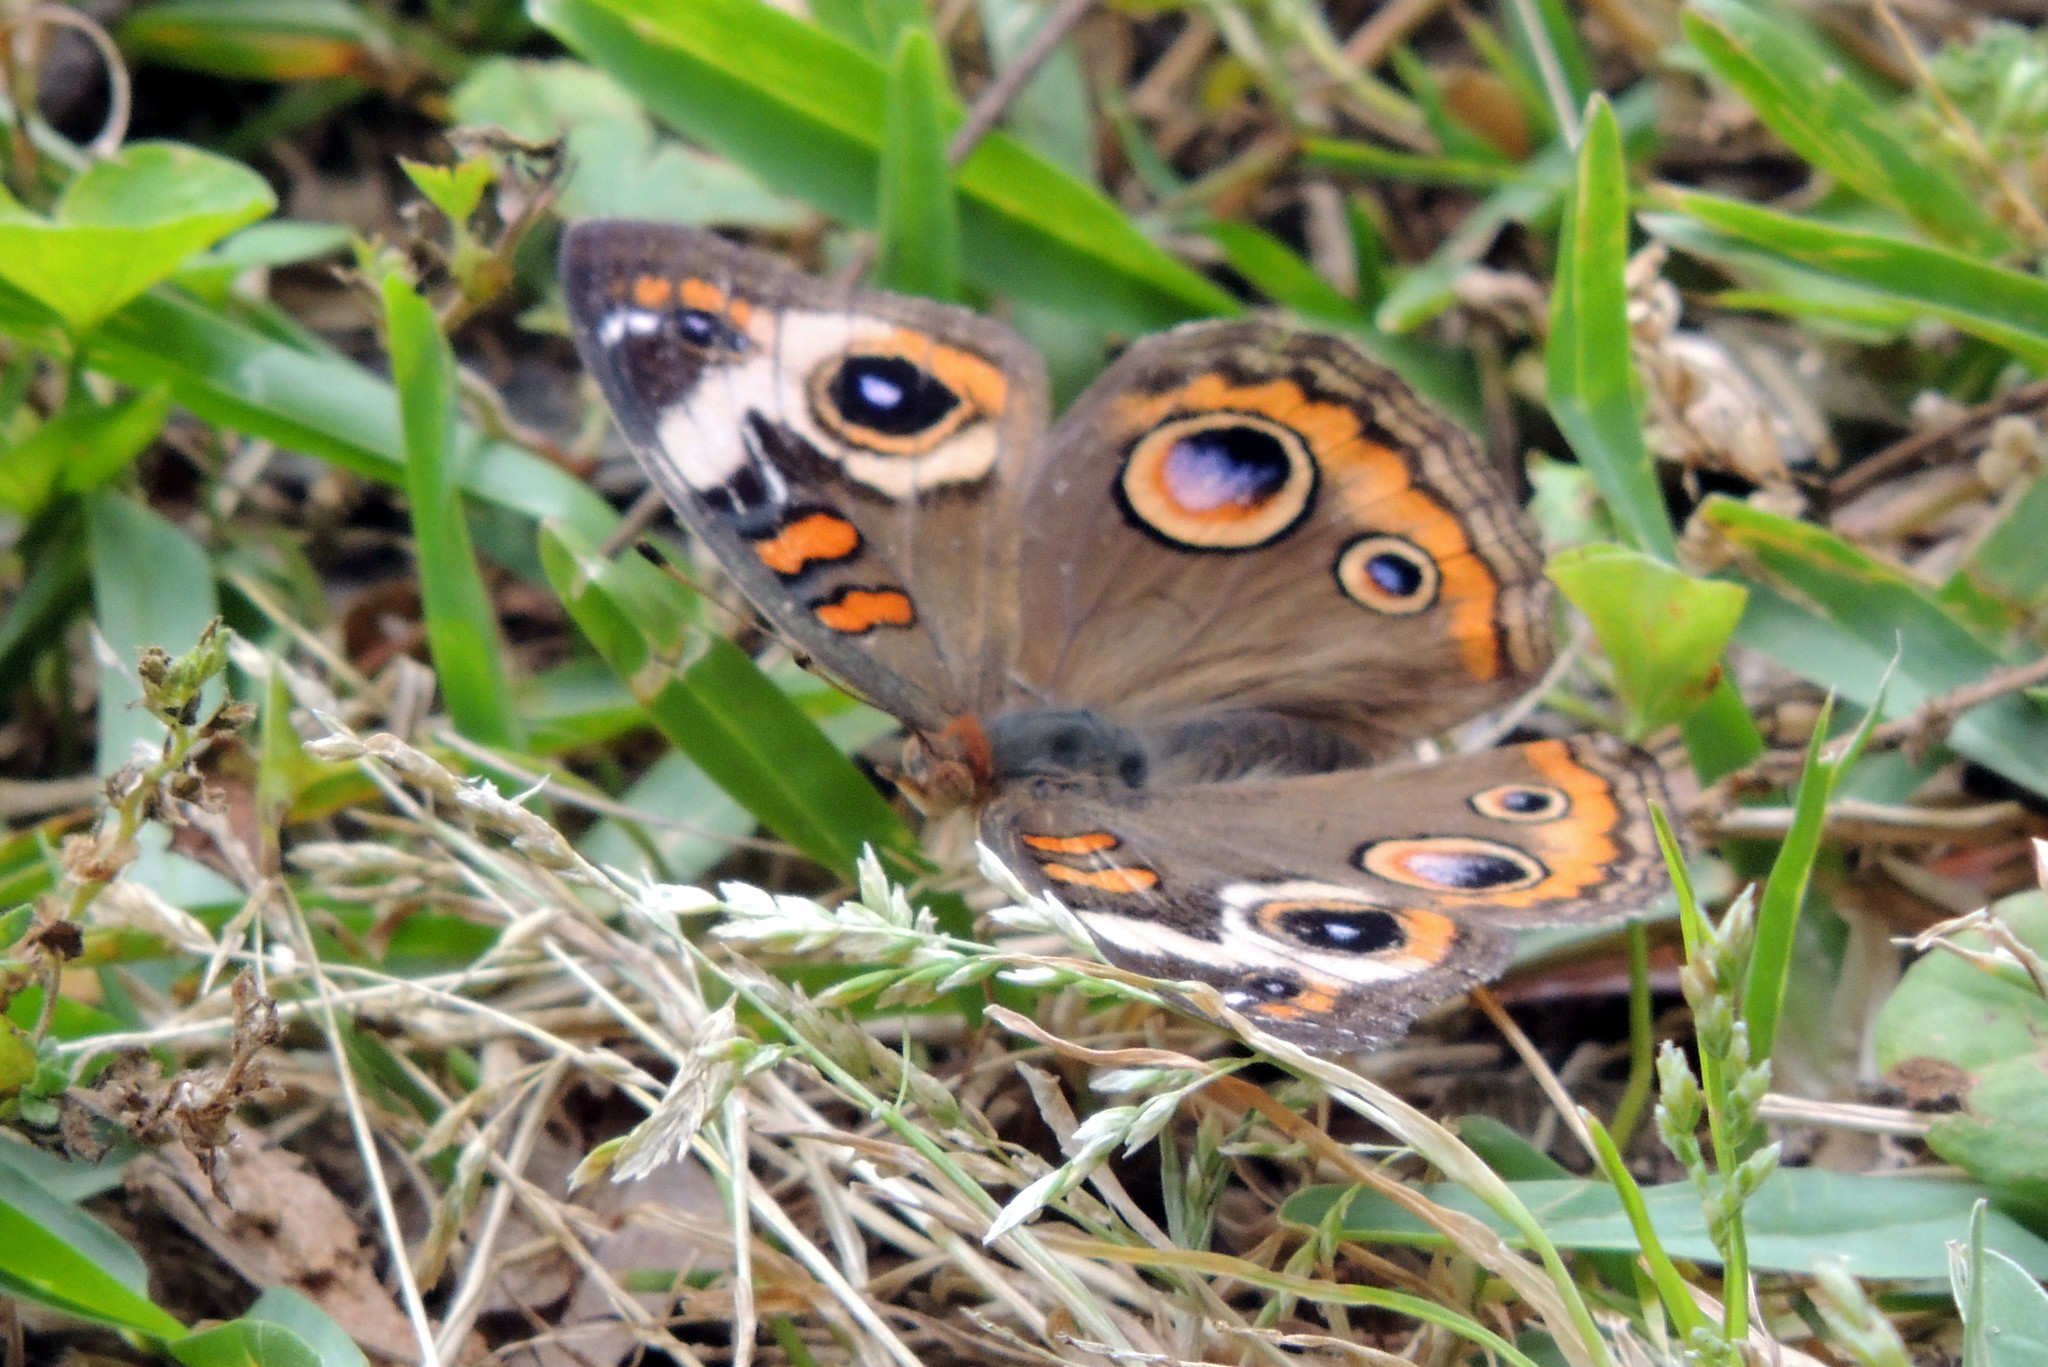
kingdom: Animalia
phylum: Arthropoda
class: Insecta
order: Lepidoptera
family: Nymphalidae
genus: Junonia
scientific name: Junonia coenia
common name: Common buckeye
